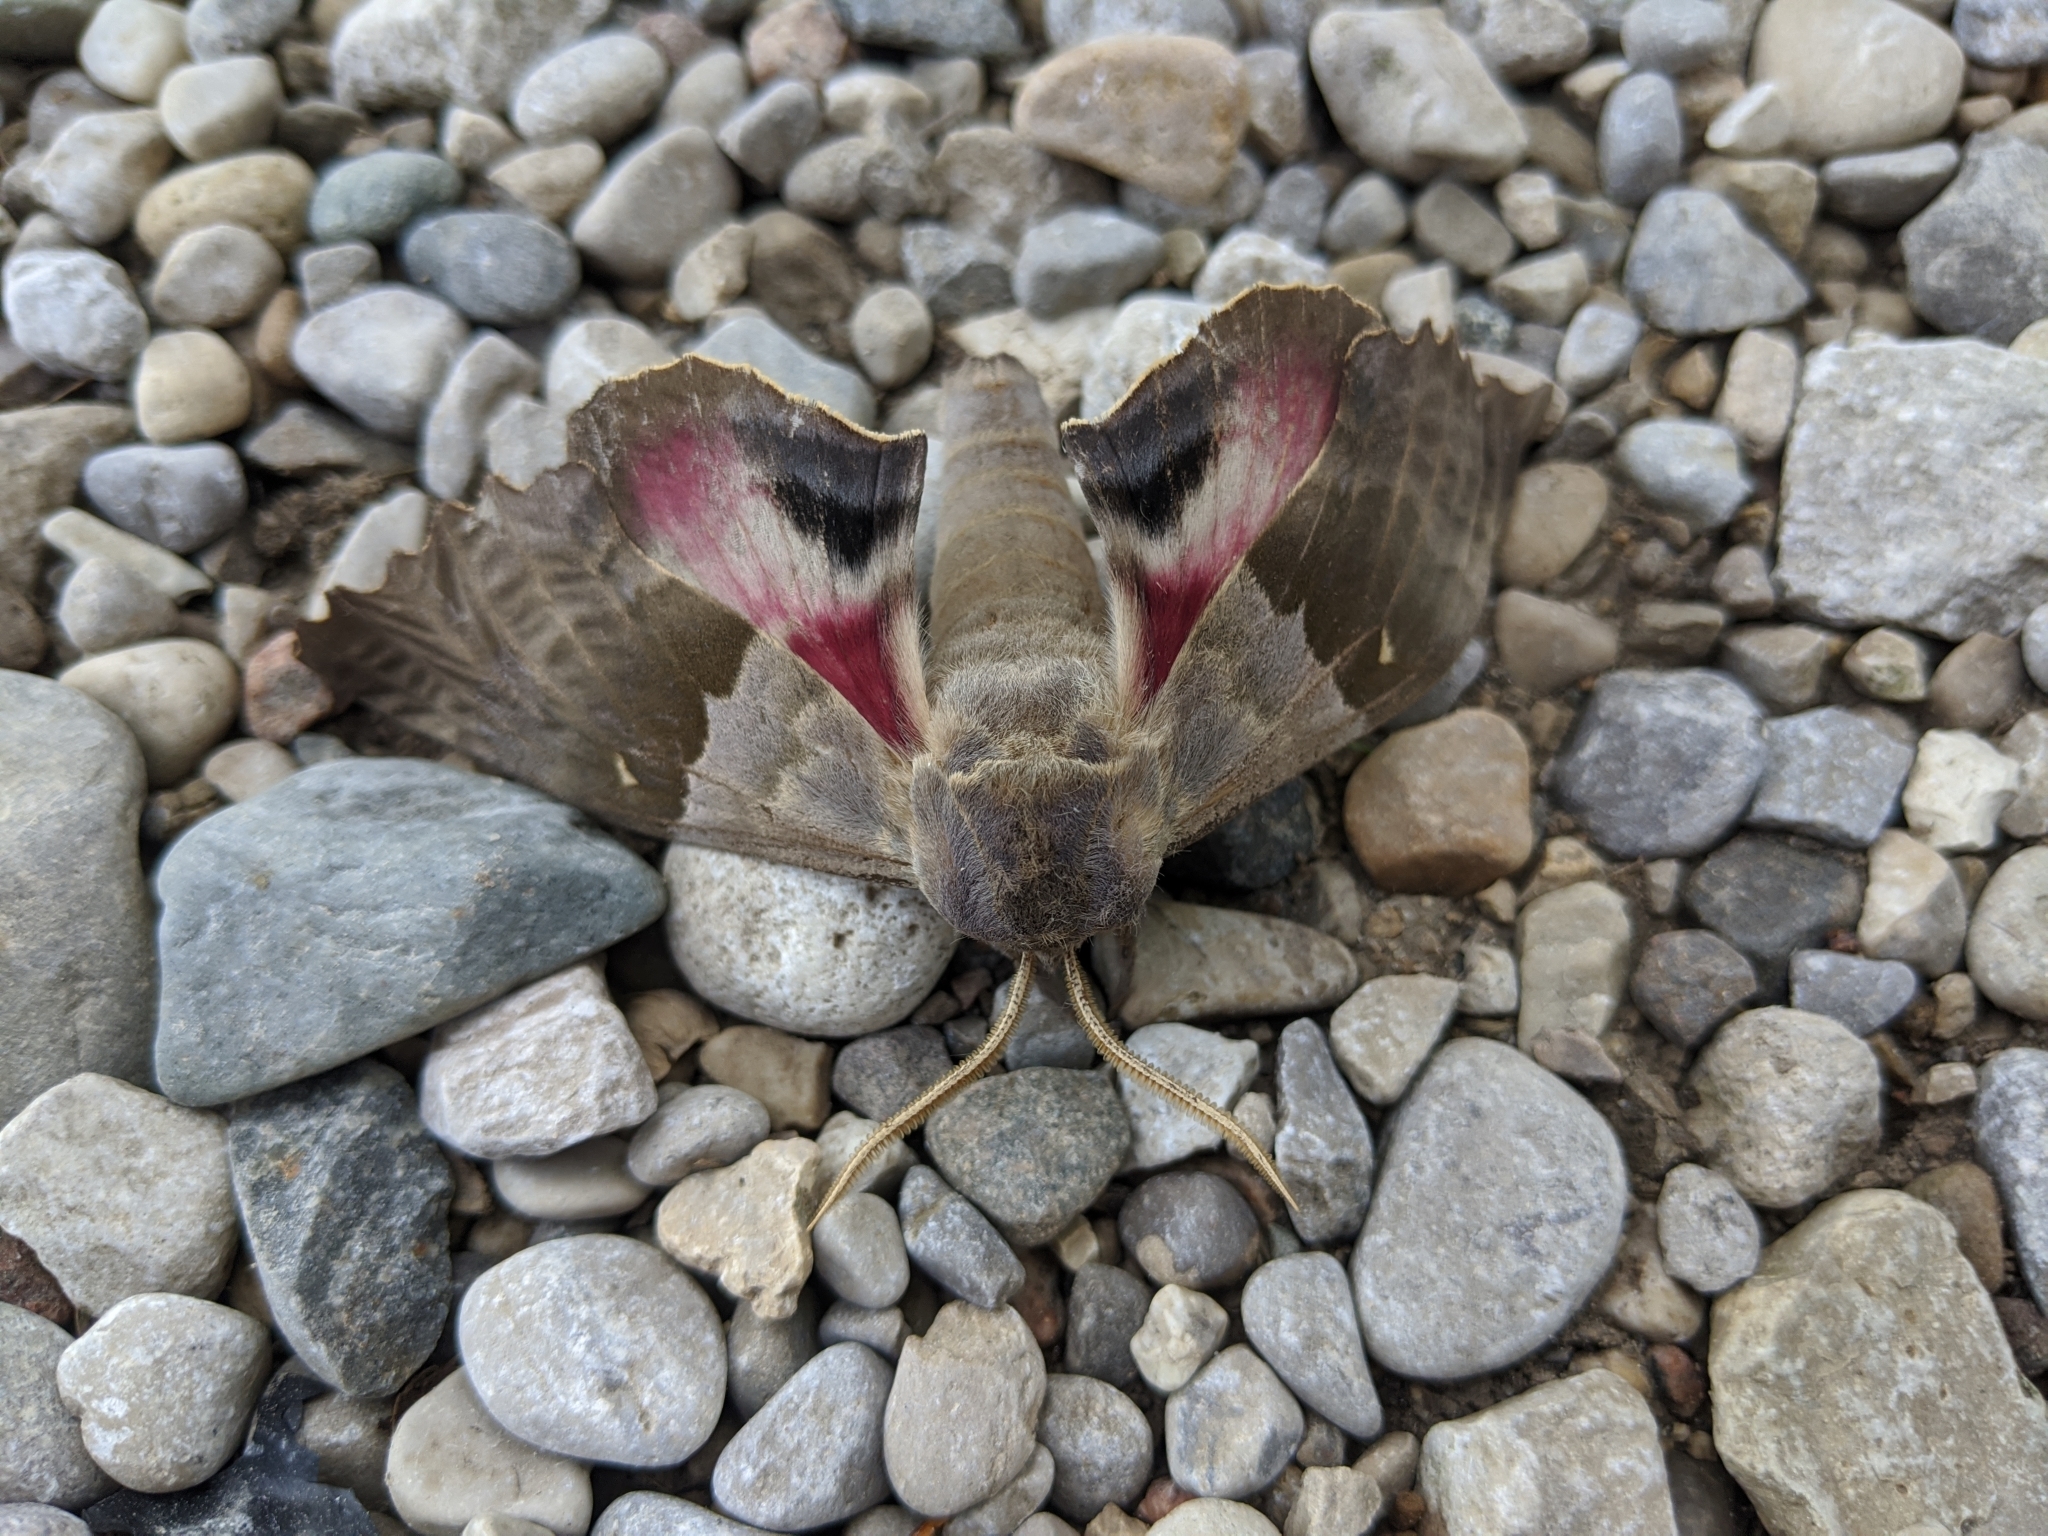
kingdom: Animalia
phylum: Arthropoda
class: Insecta
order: Lepidoptera
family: Sphingidae
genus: Pachysphinx
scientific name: Pachysphinx modesta
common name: Big poplar sphinx
